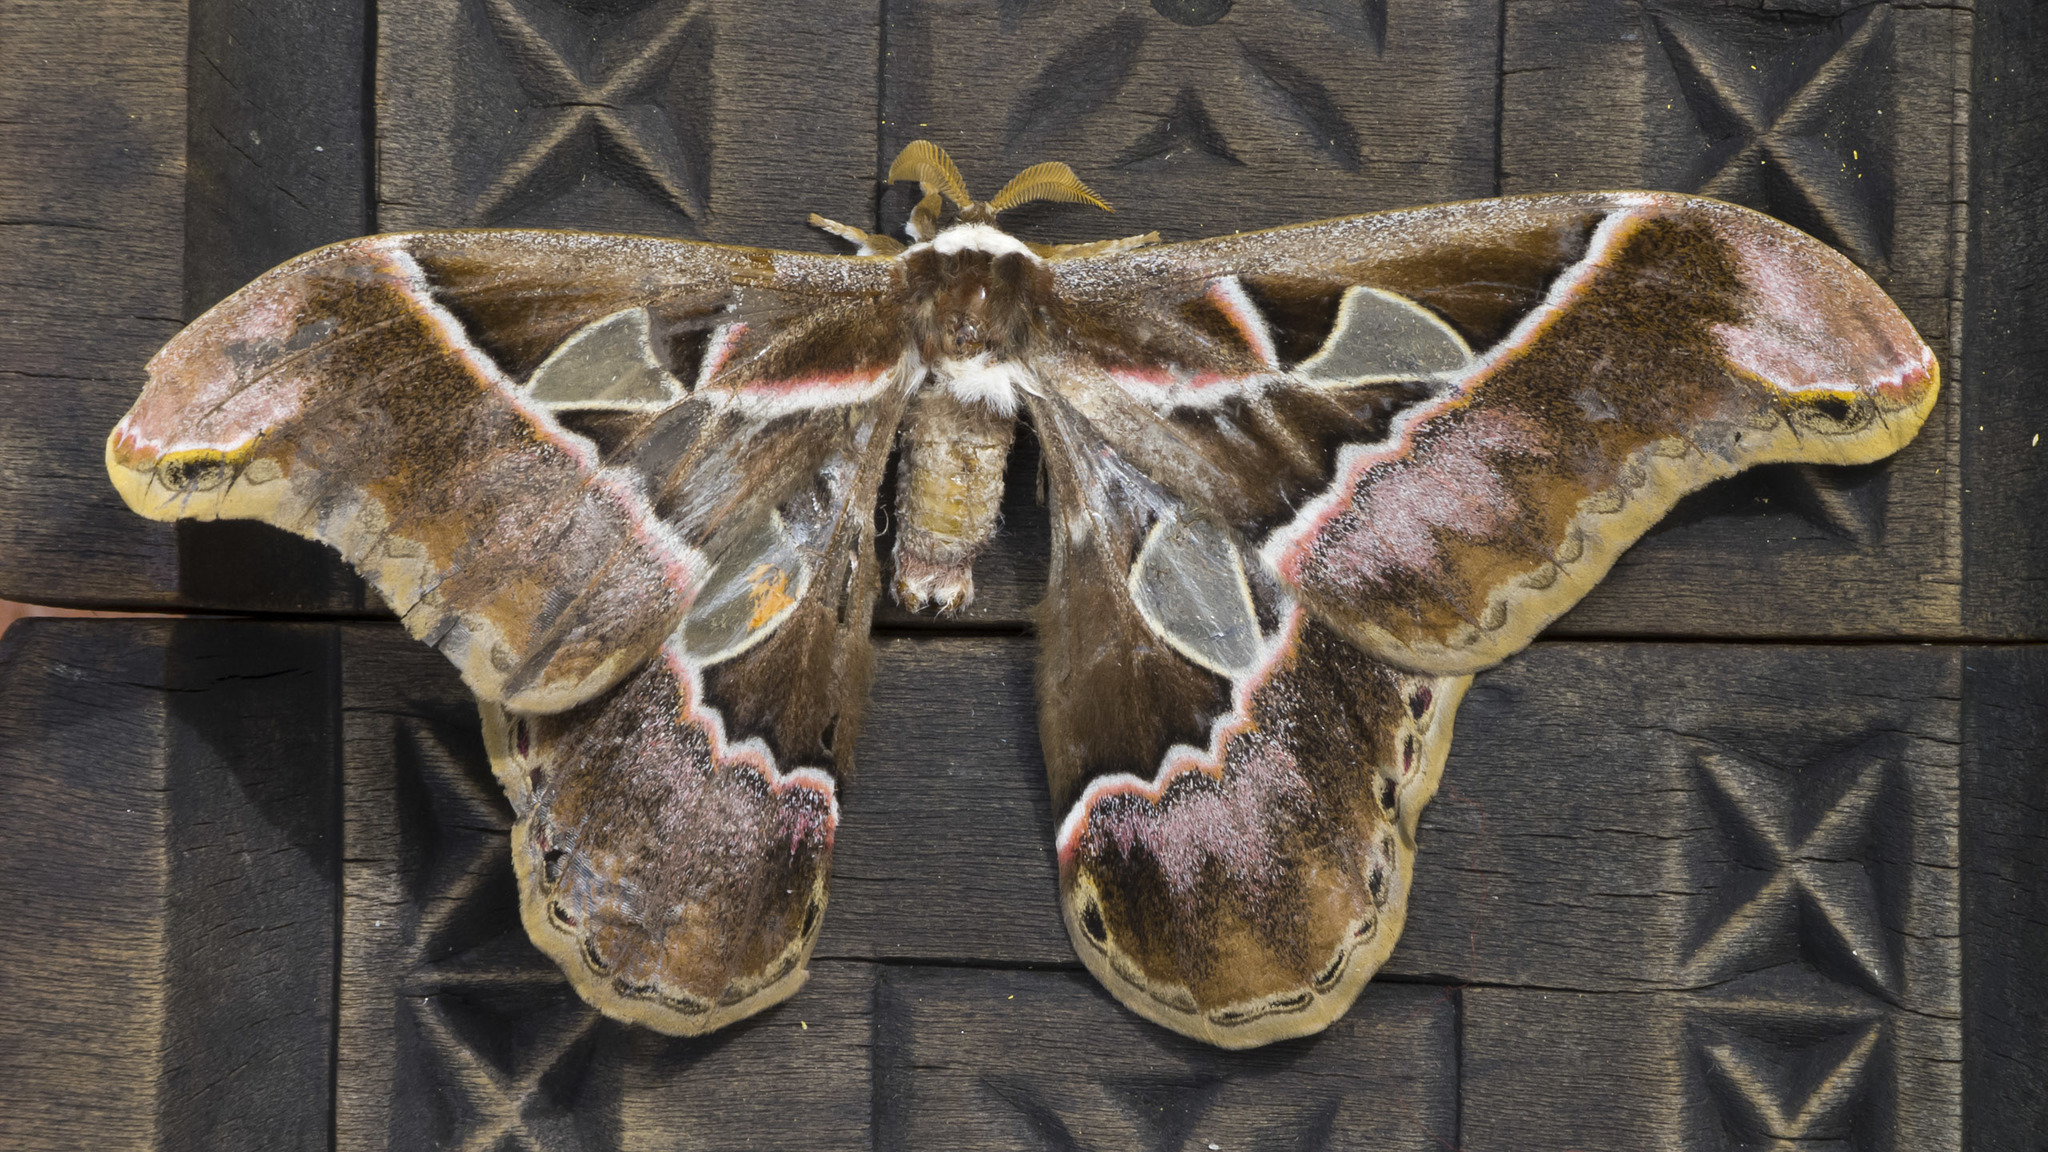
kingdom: Animalia
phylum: Arthropoda
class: Insecta
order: Lepidoptera
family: Saturniidae
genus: Rothschildia
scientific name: Rothschildia lebeau
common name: Lebeau's rothschildia
